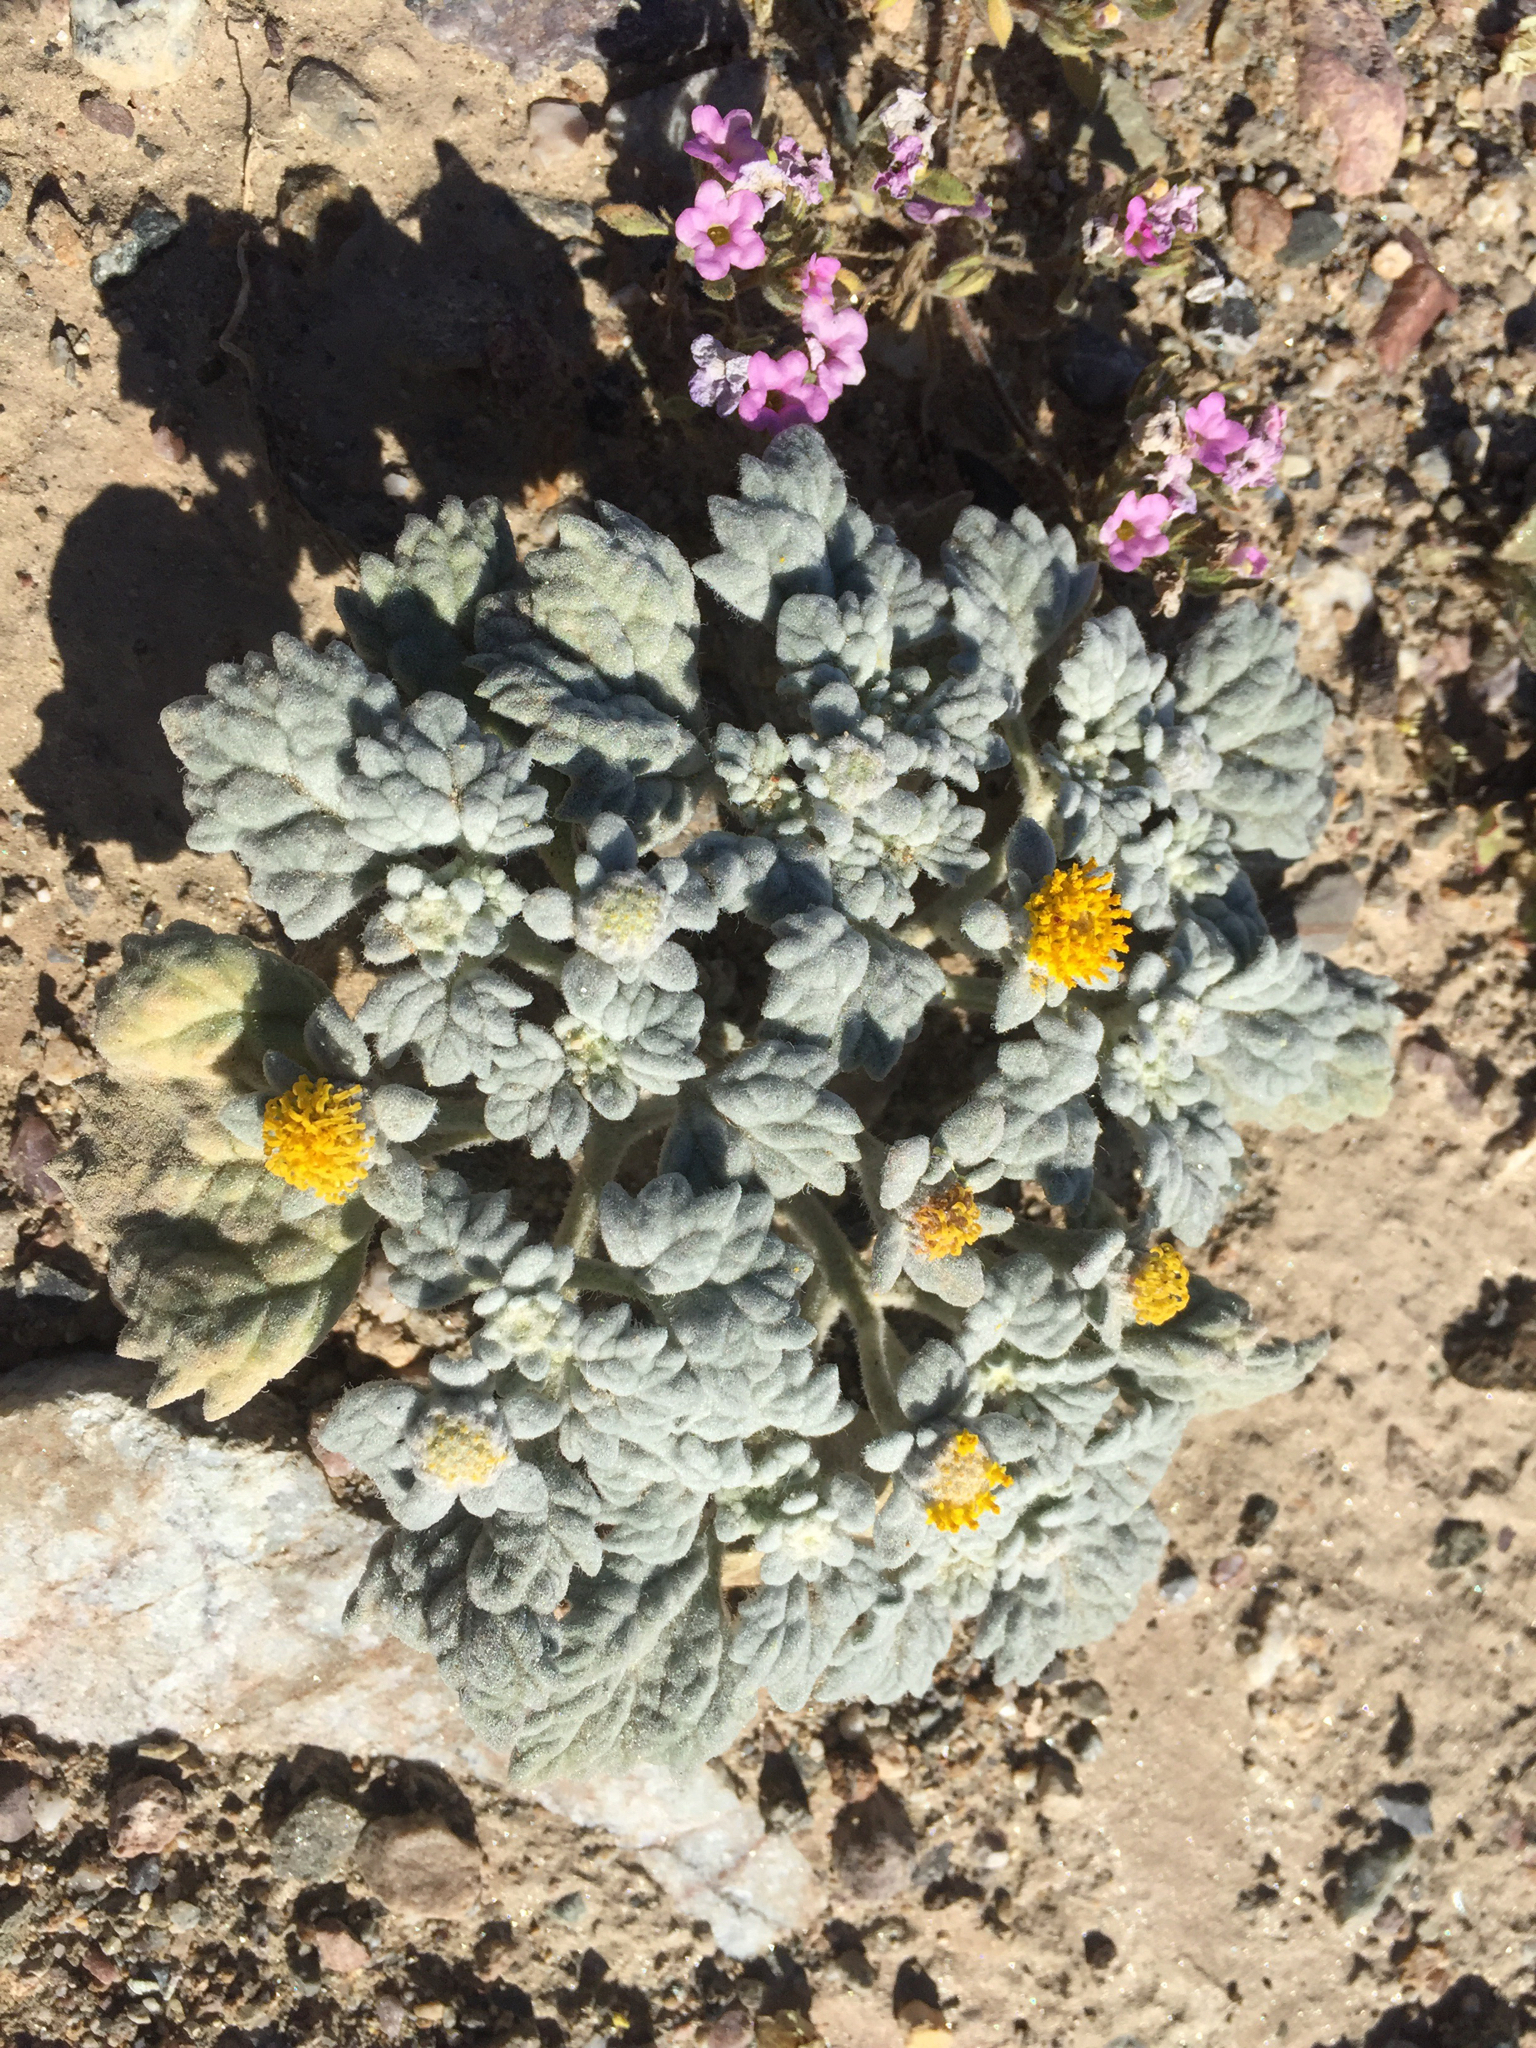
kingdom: Plantae
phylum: Tracheophyta
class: Magnoliopsida
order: Asterales
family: Asteraceae
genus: Psathyrotes
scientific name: Psathyrotes ramosissima
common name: Turtleback
